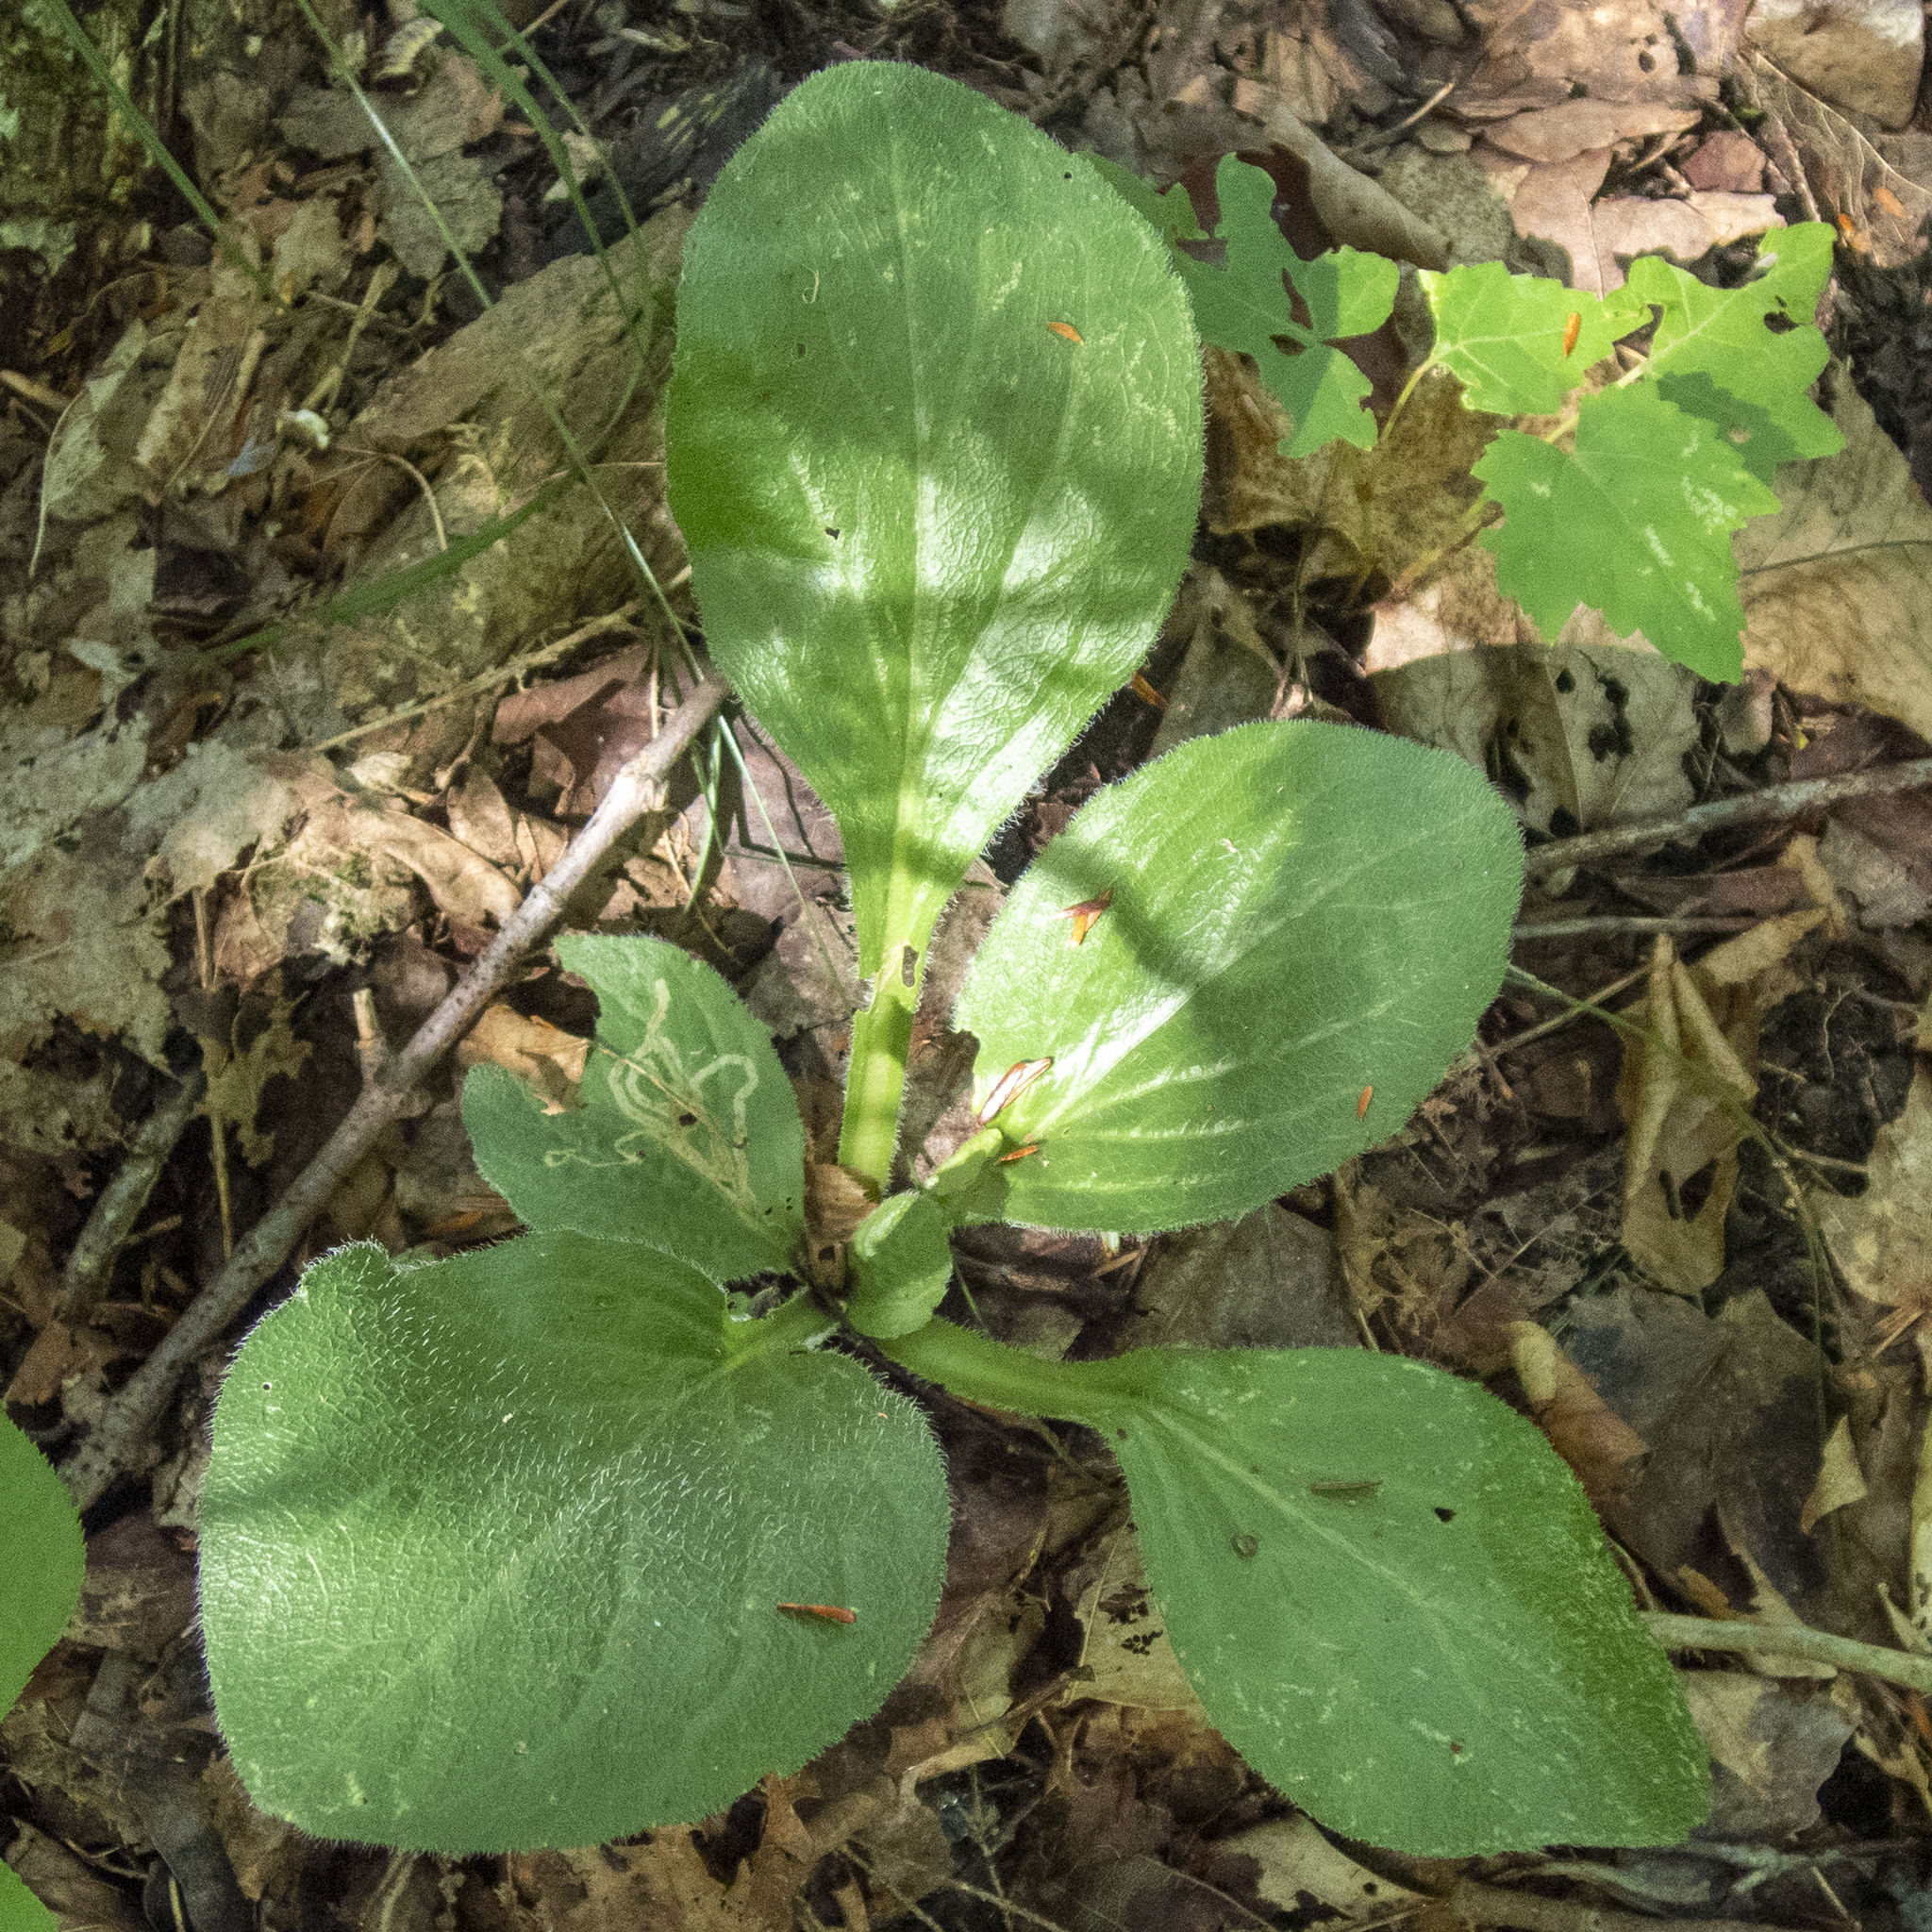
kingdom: Plantae
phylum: Tracheophyta
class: Magnoliopsida
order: Asterales
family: Asteraceae
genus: Erigeron
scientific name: Erigeron pulchellus
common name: Hairy fleabane
